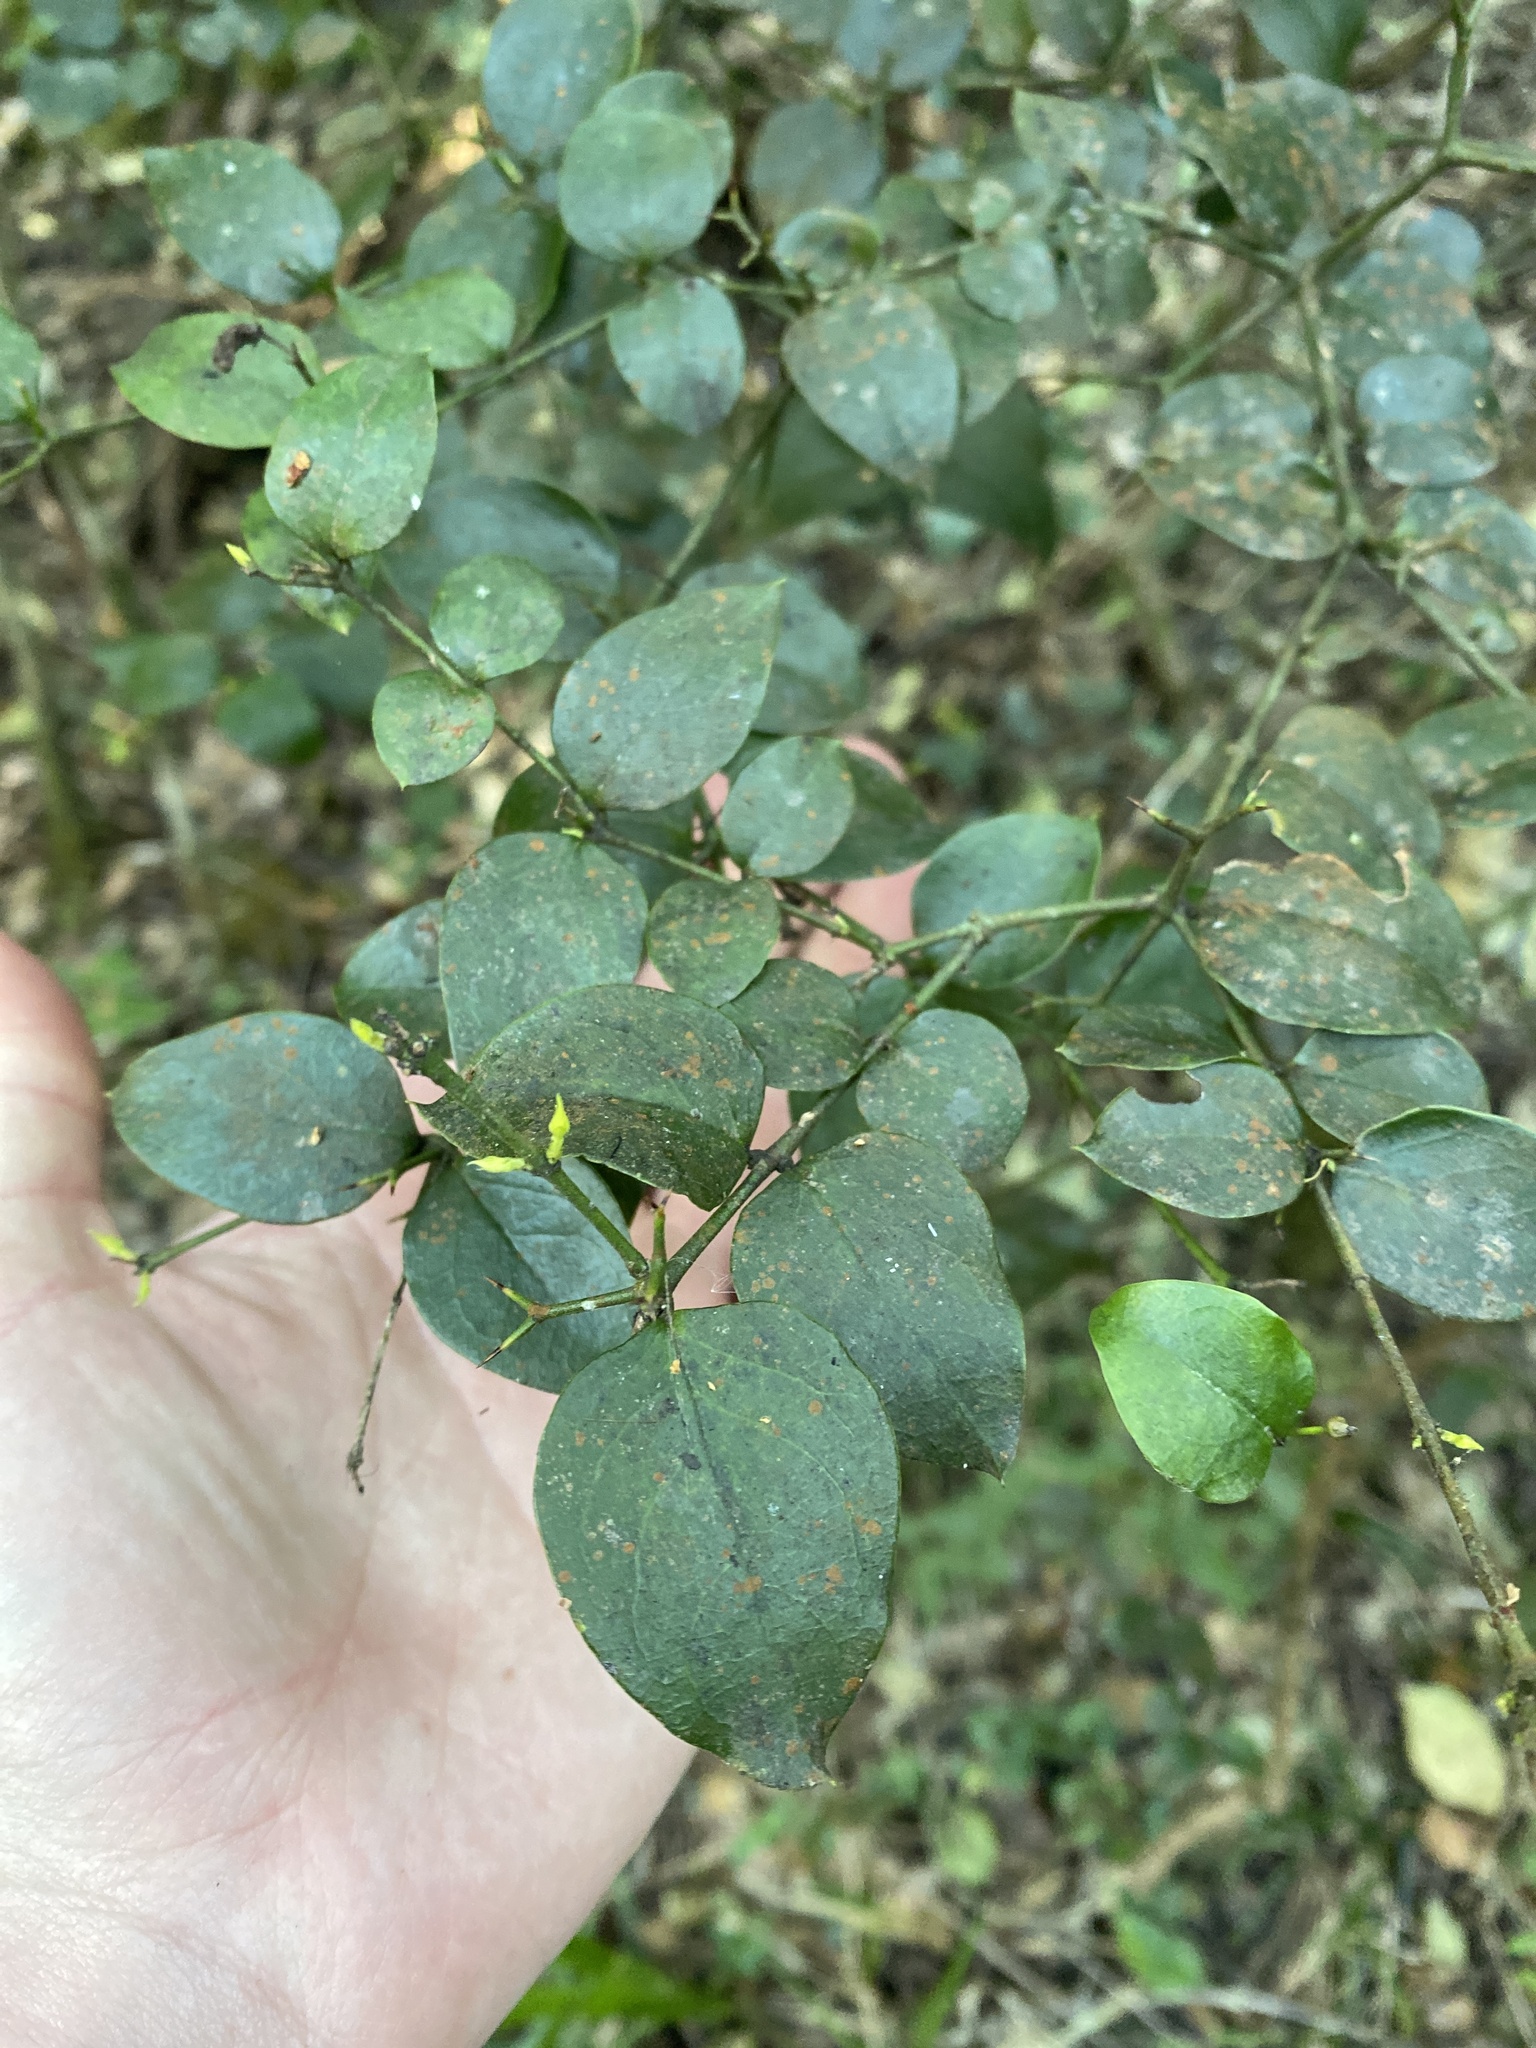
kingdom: Plantae
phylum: Tracheophyta
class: Magnoliopsida
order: Gentianales
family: Apocynaceae
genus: Carissa
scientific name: Carissa bispinosa
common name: Forest num-num
